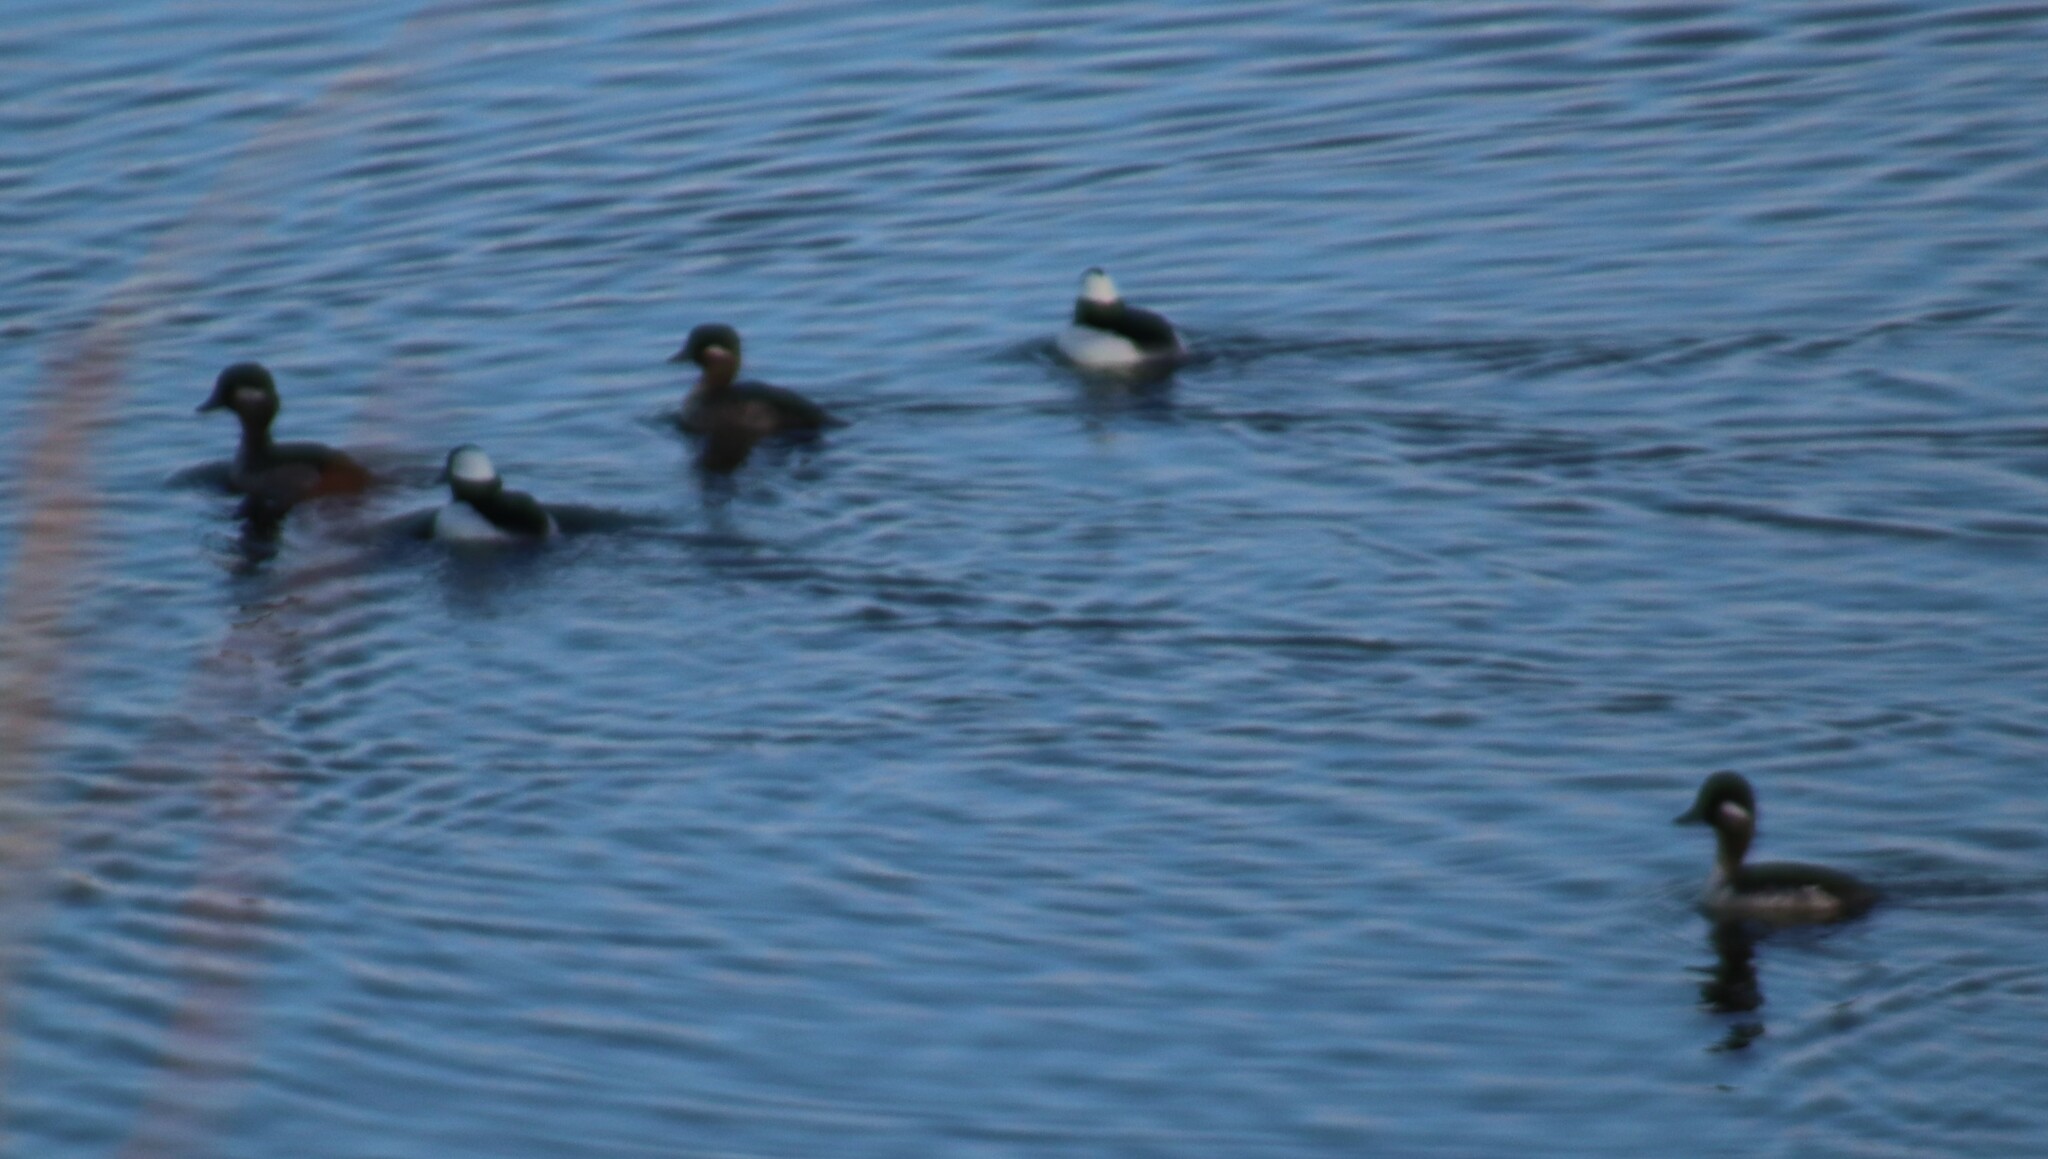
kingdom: Animalia
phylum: Chordata
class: Aves
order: Anseriformes
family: Anatidae
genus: Bucephala
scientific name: Bucephala albeola
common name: Bufflehead
